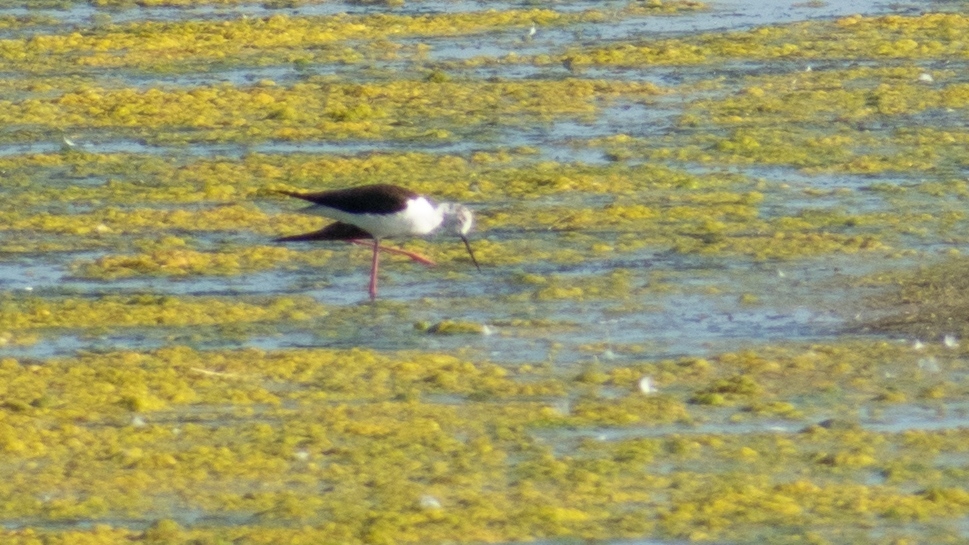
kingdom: Animalia
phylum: Chordata
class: Aves
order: Charadriiformes
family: Recurvirostridae
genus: Himantopus
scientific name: Himantopus himantopus
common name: Black-winged stilt
